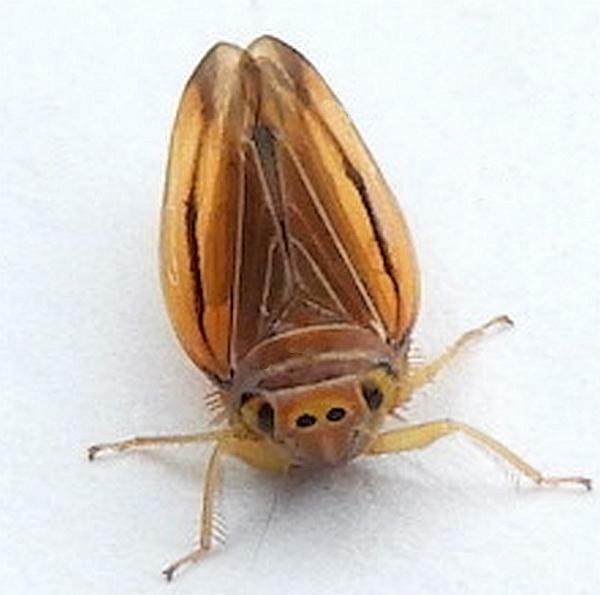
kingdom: Animalia
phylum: Arthropoda
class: Insecta
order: Hemiptera
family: Cicadellidae
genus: Idiodonus
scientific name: Idiodonus kennicotti
